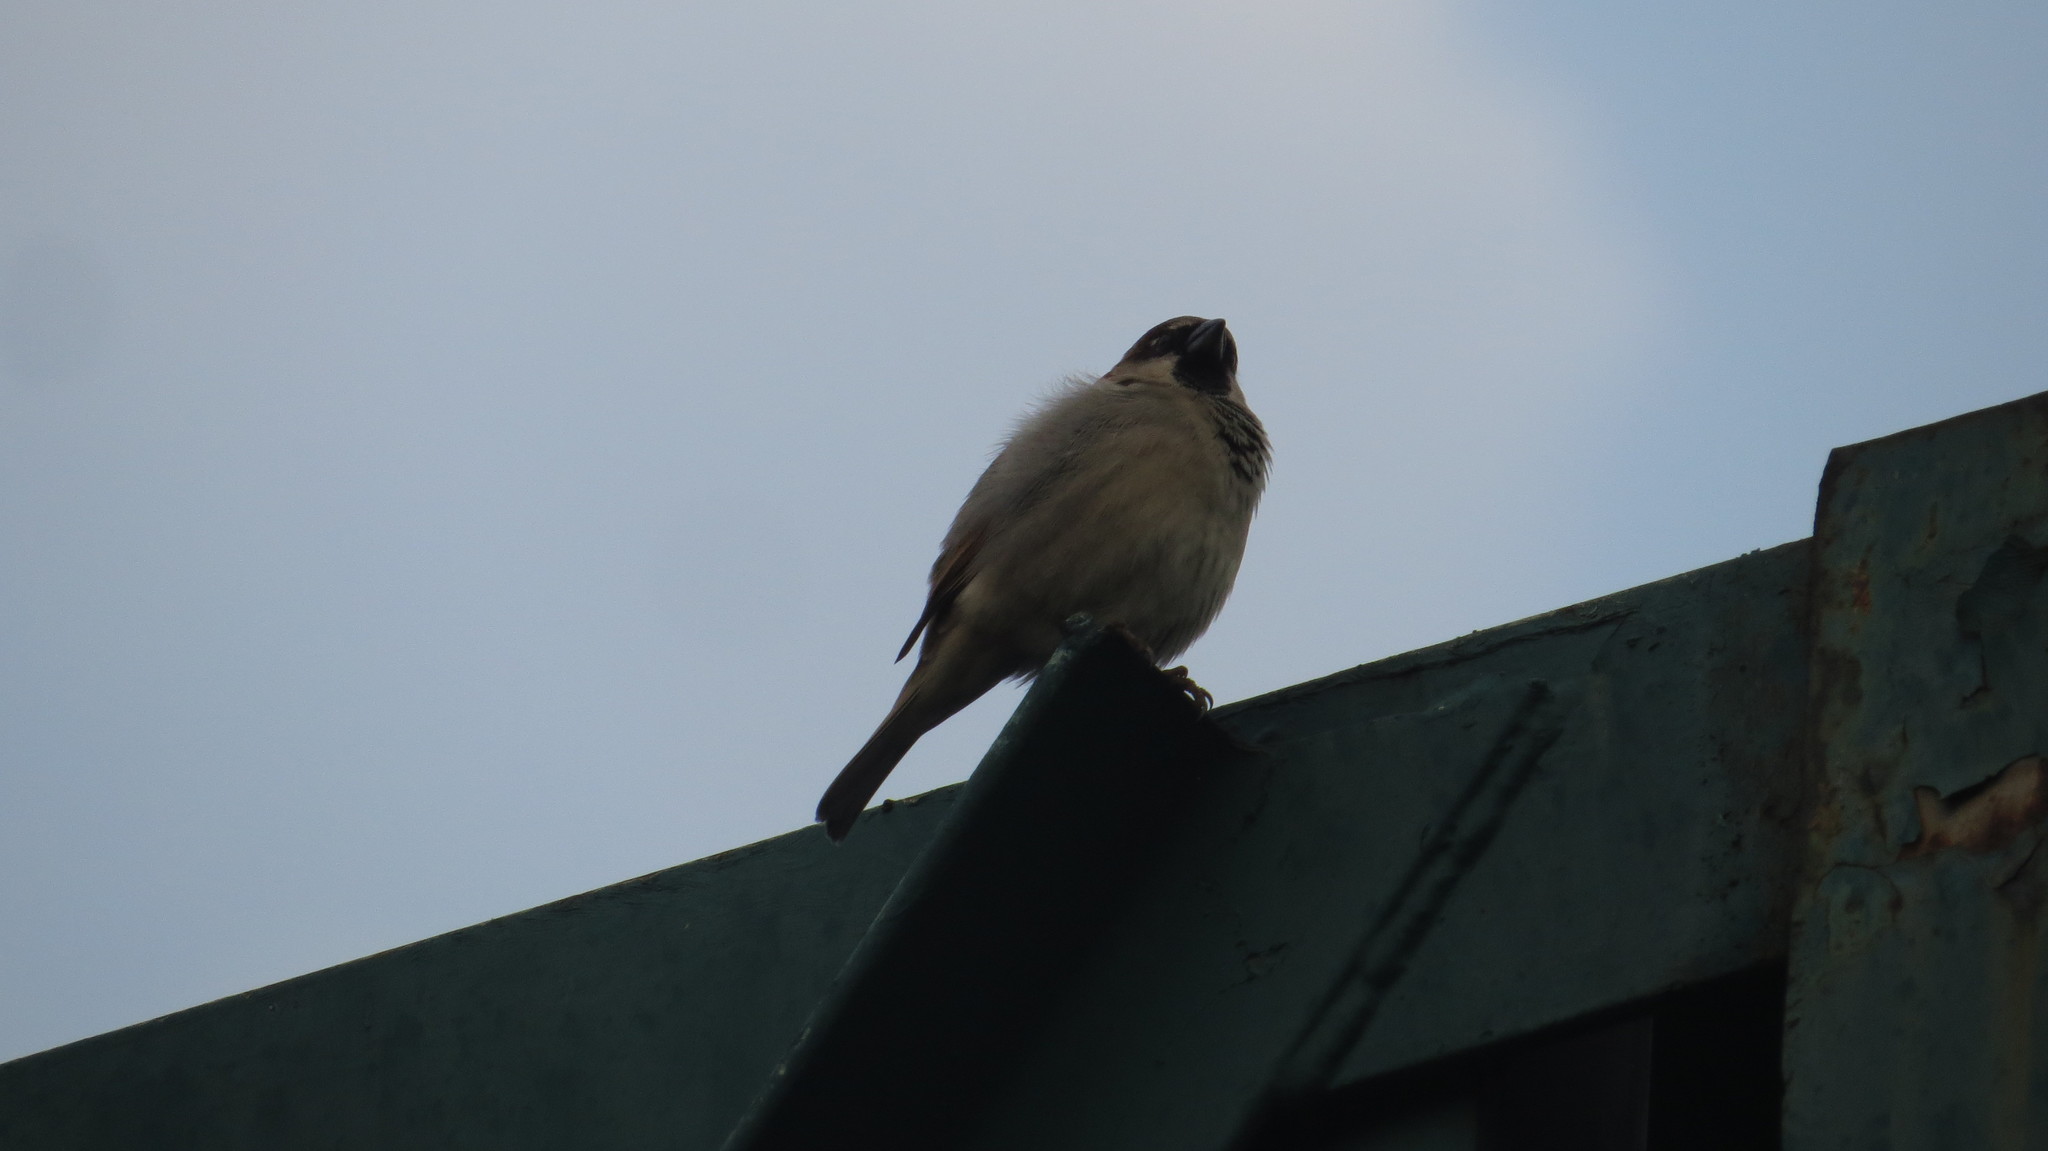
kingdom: Animalia
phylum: Chordata
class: Aves
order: Passeriformes
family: Passeridae
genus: Passer
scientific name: Passer domesticus
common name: House sparrow
